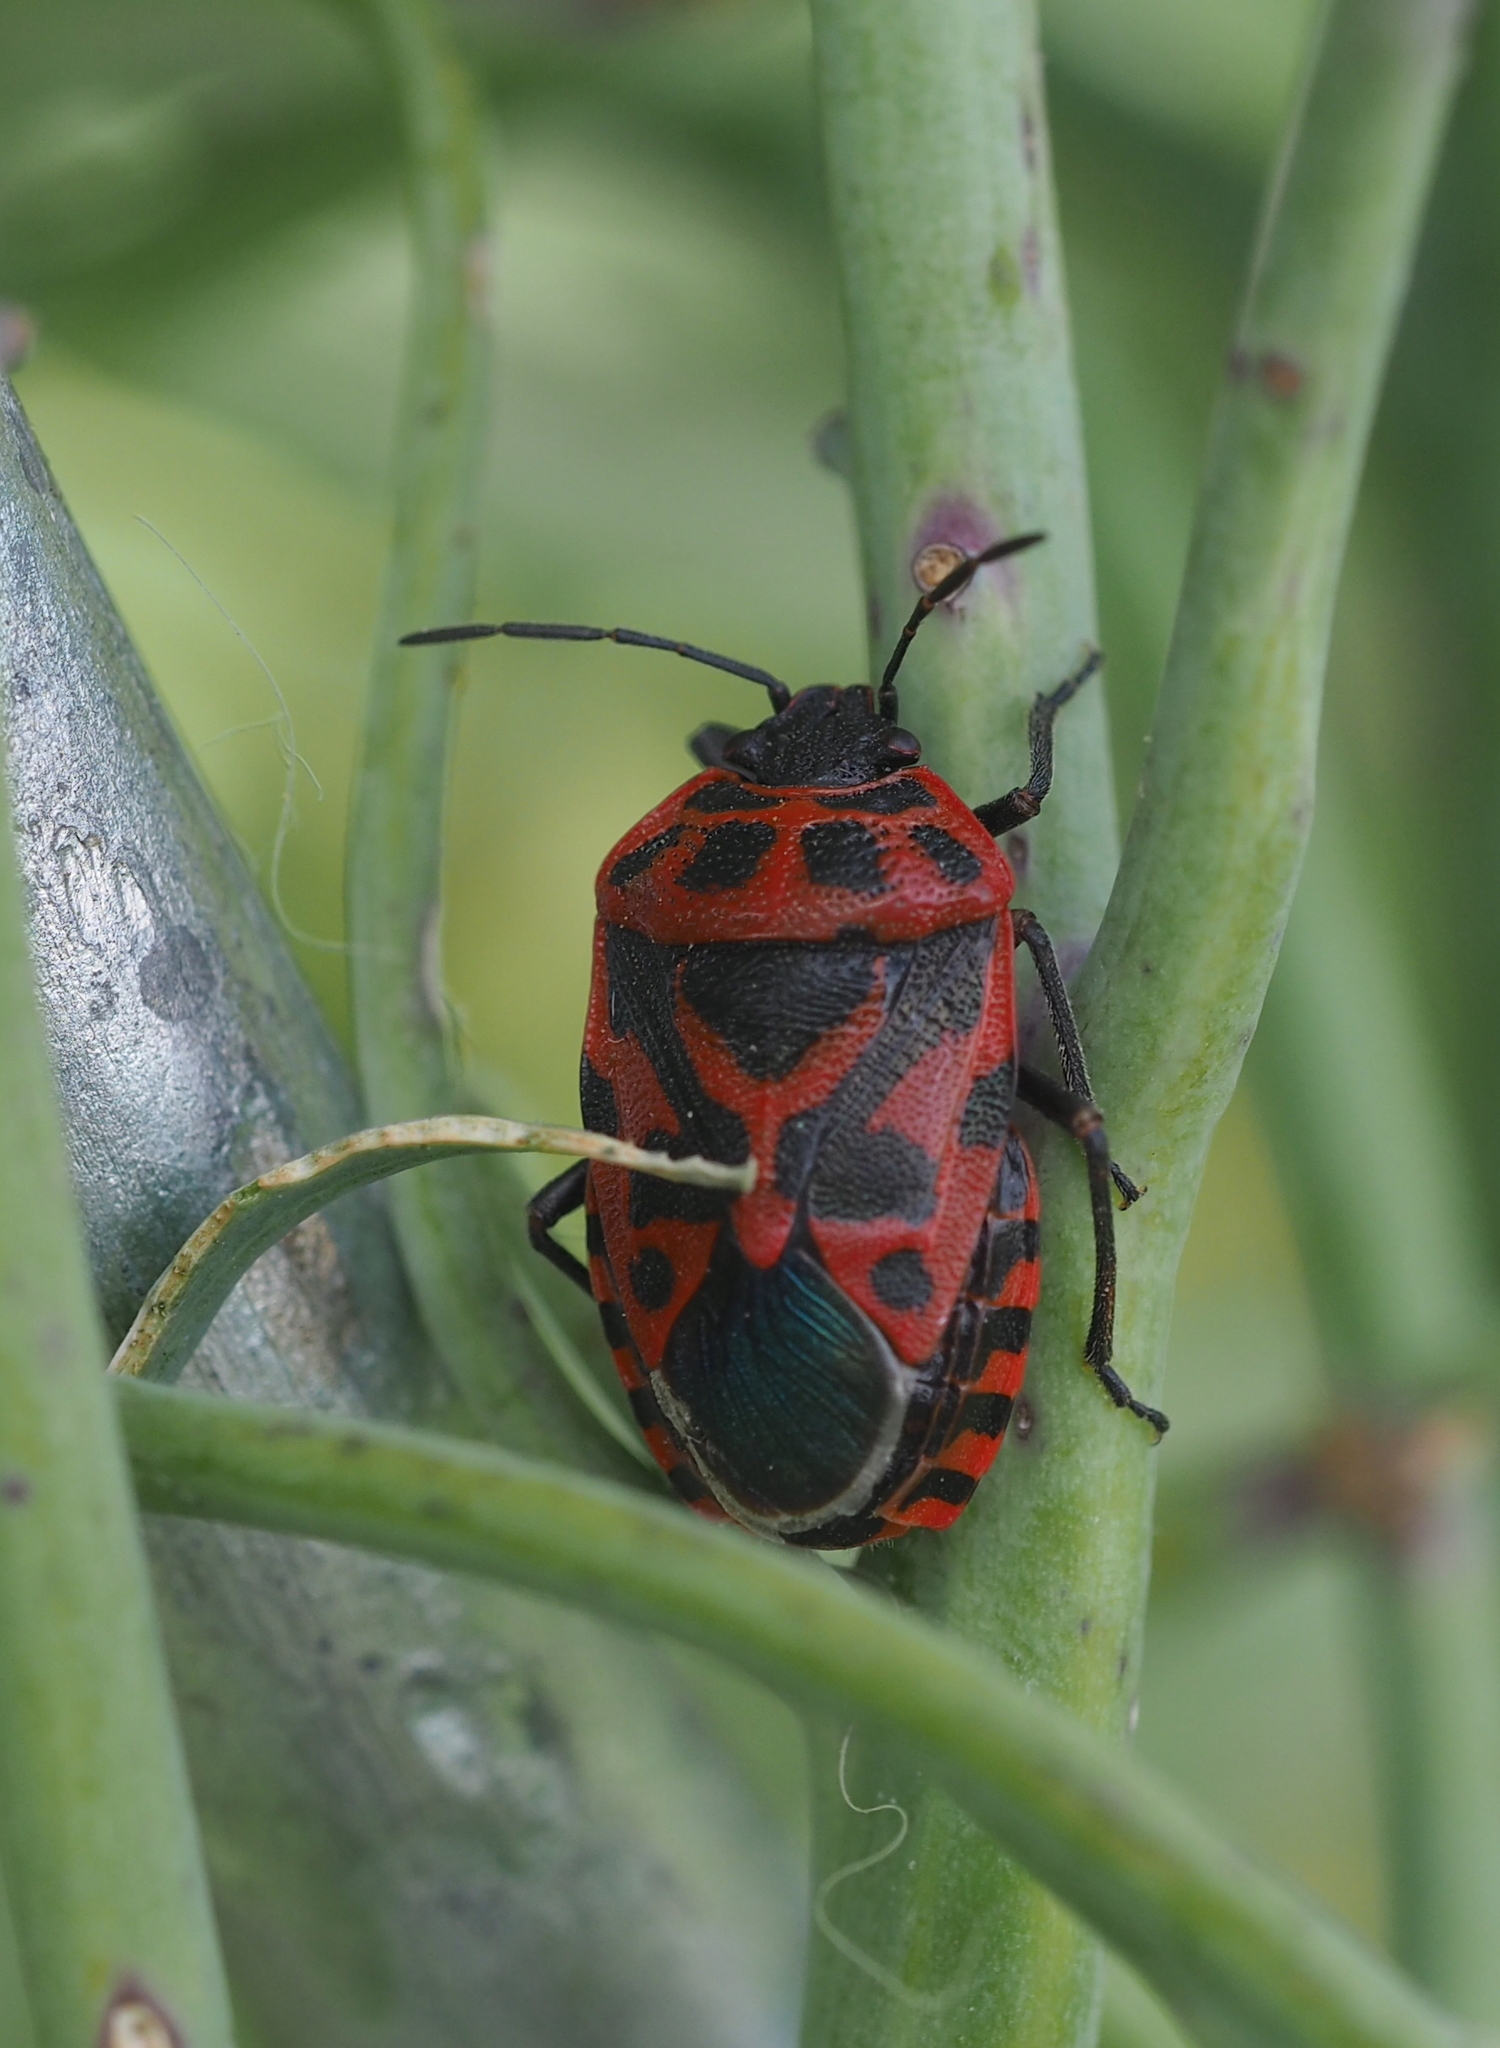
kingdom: Animalia
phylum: Arthropoda
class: Insecta
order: Hemiptera
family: Pentatomidae
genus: Eurydema
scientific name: Eurydema ventralis
